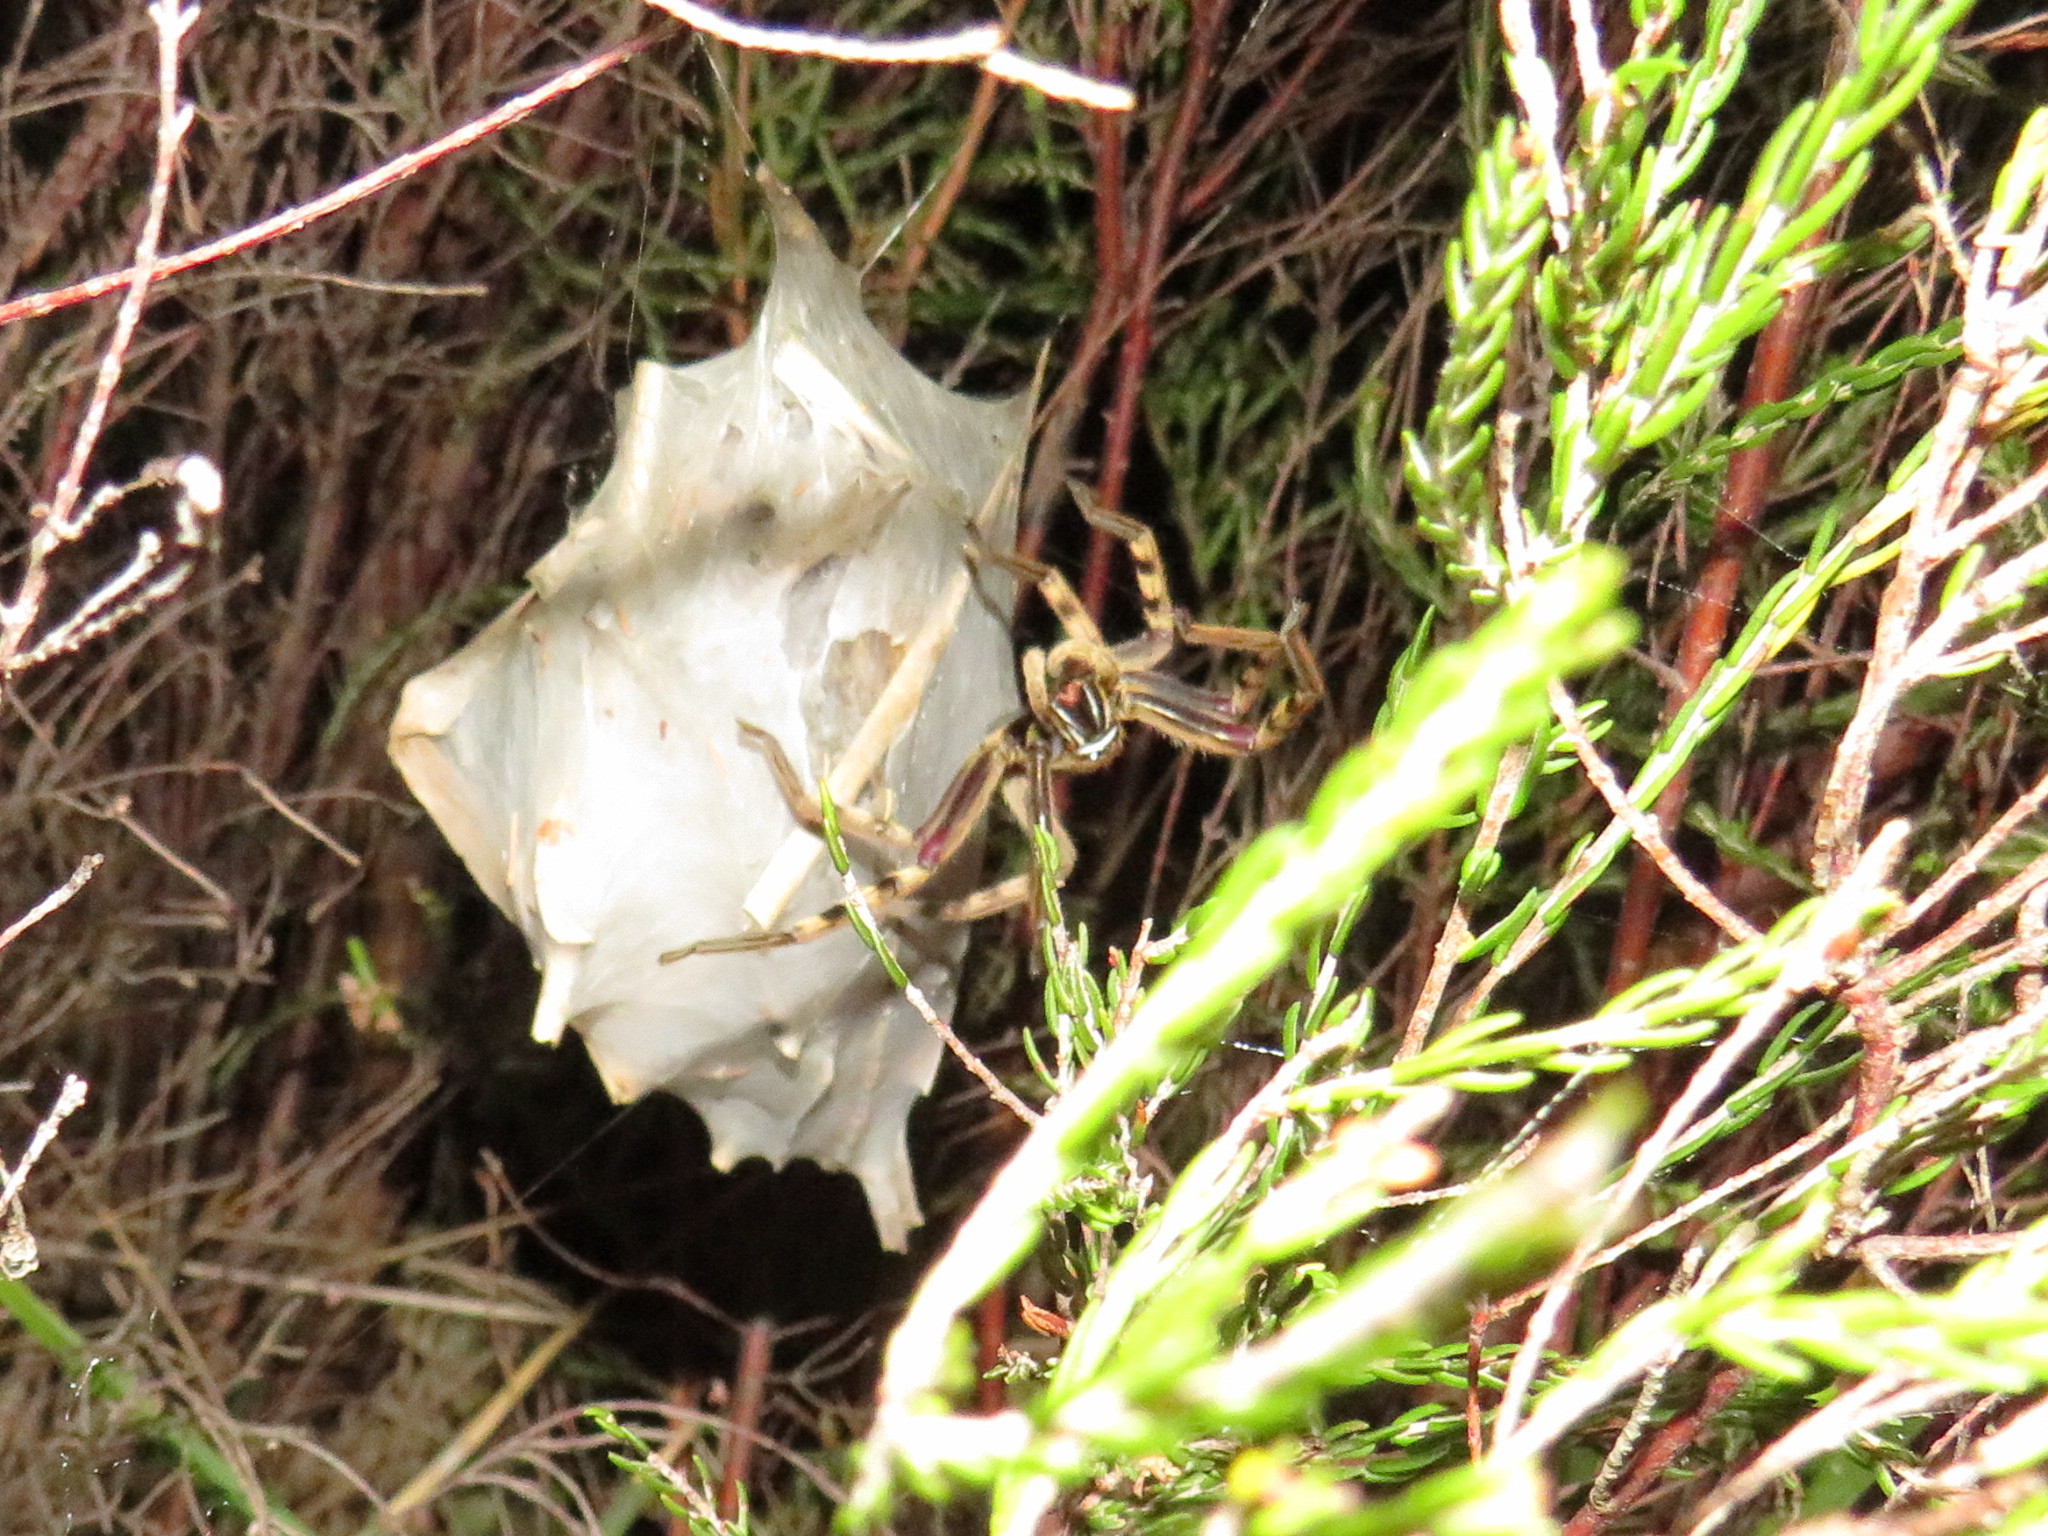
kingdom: Animalia
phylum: Arthropoda
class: Arachnida
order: Araneae
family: Sparassidae
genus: Palystes
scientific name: Palystes superciliosus
